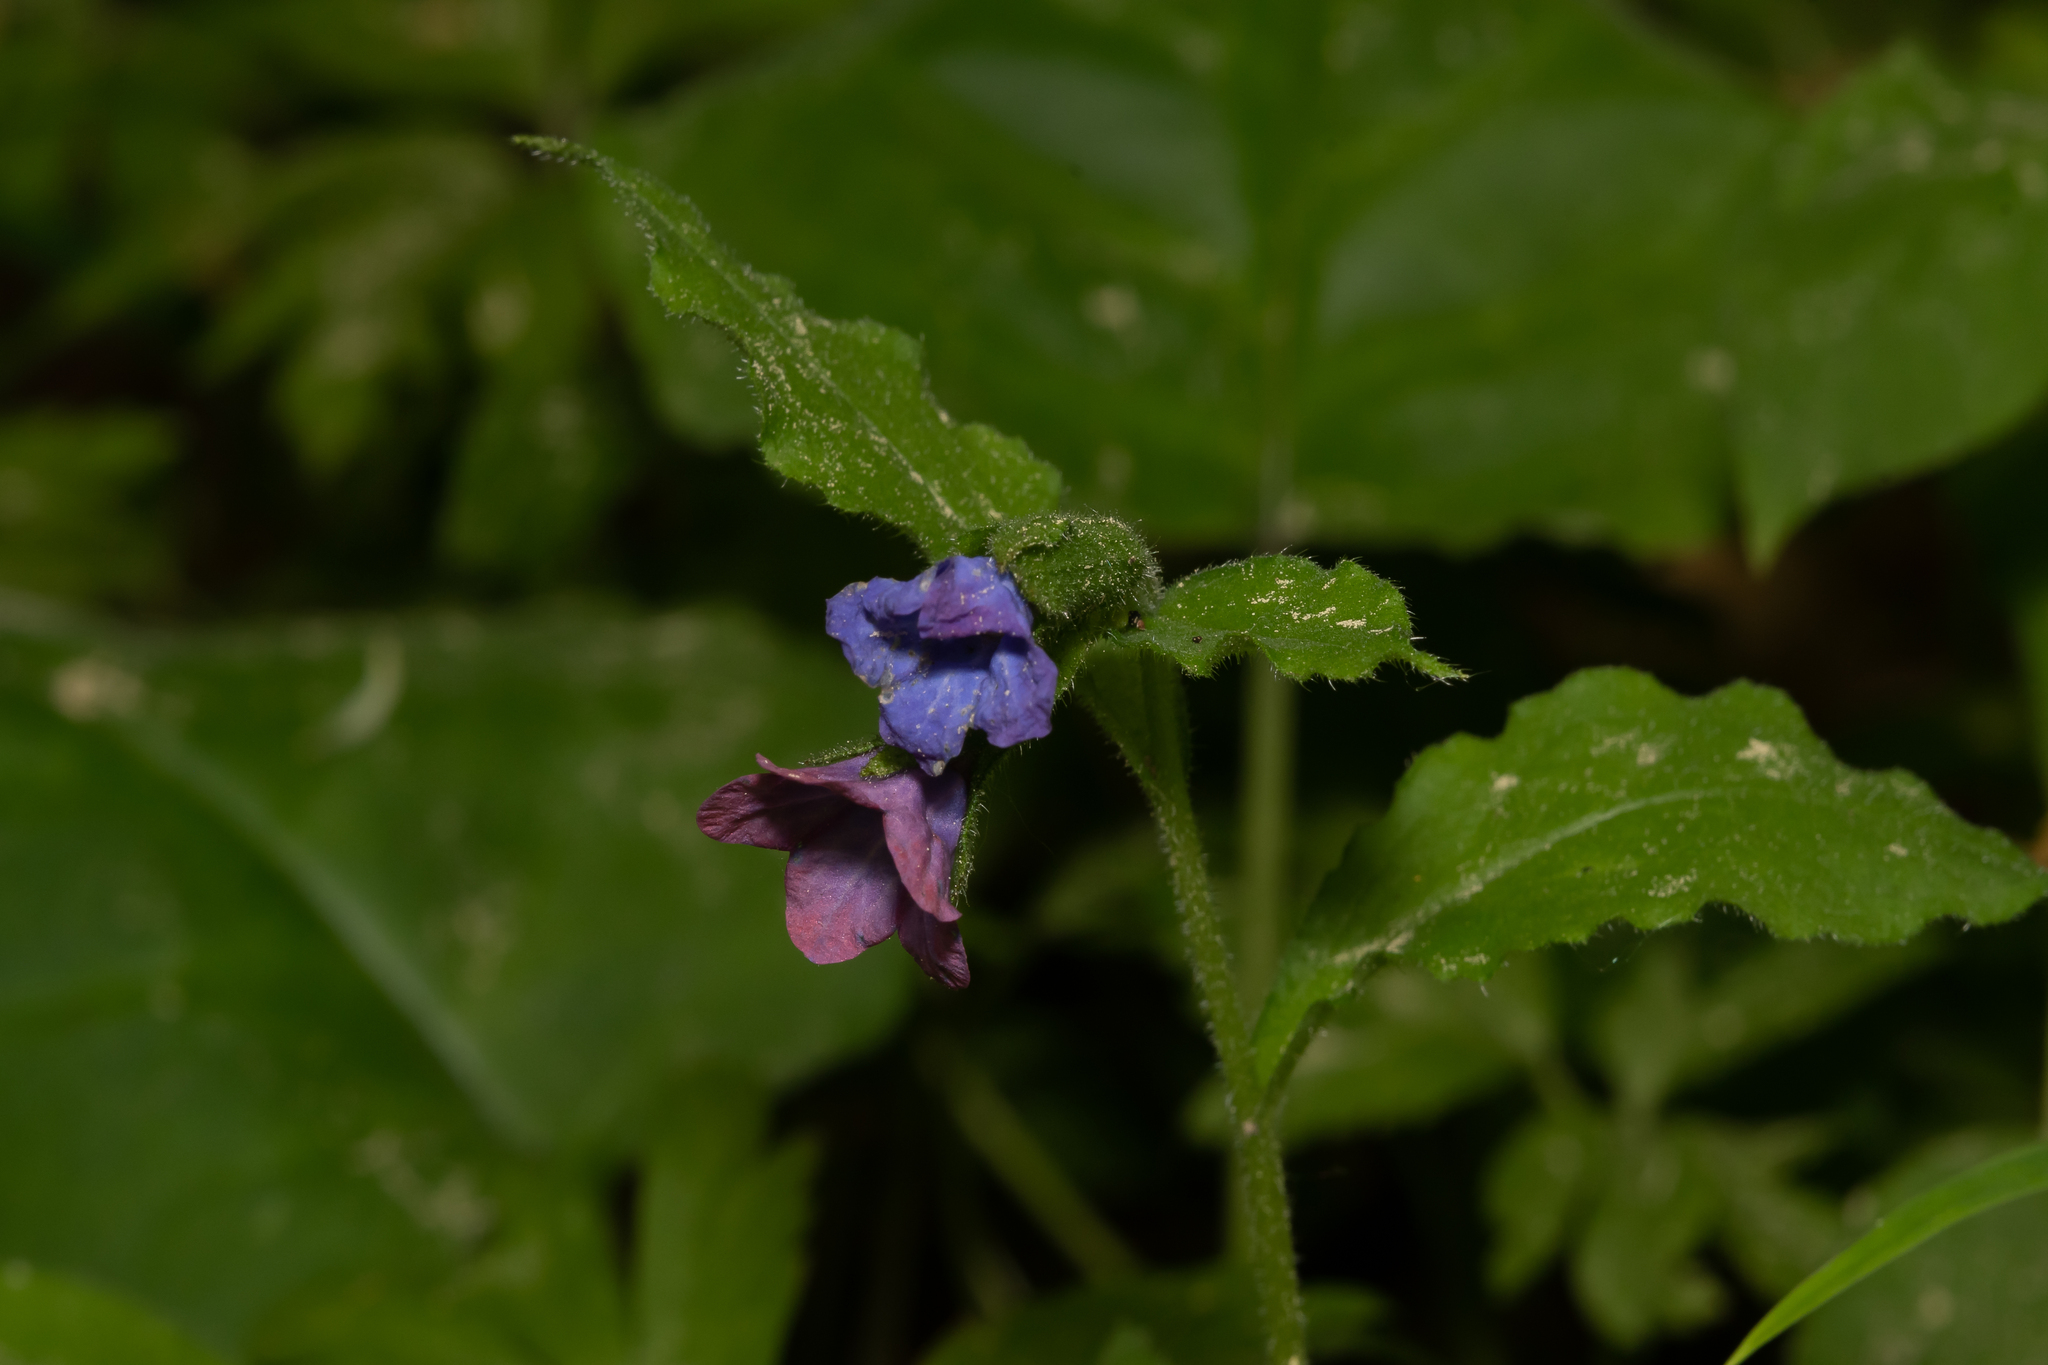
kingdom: Plantae
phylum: Tracheophyta
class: Magnoliopsida
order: Boraginales
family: Boraginaceae
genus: Pulmonaria
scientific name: Pulmonaria obscura
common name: Suffolk lungwort
